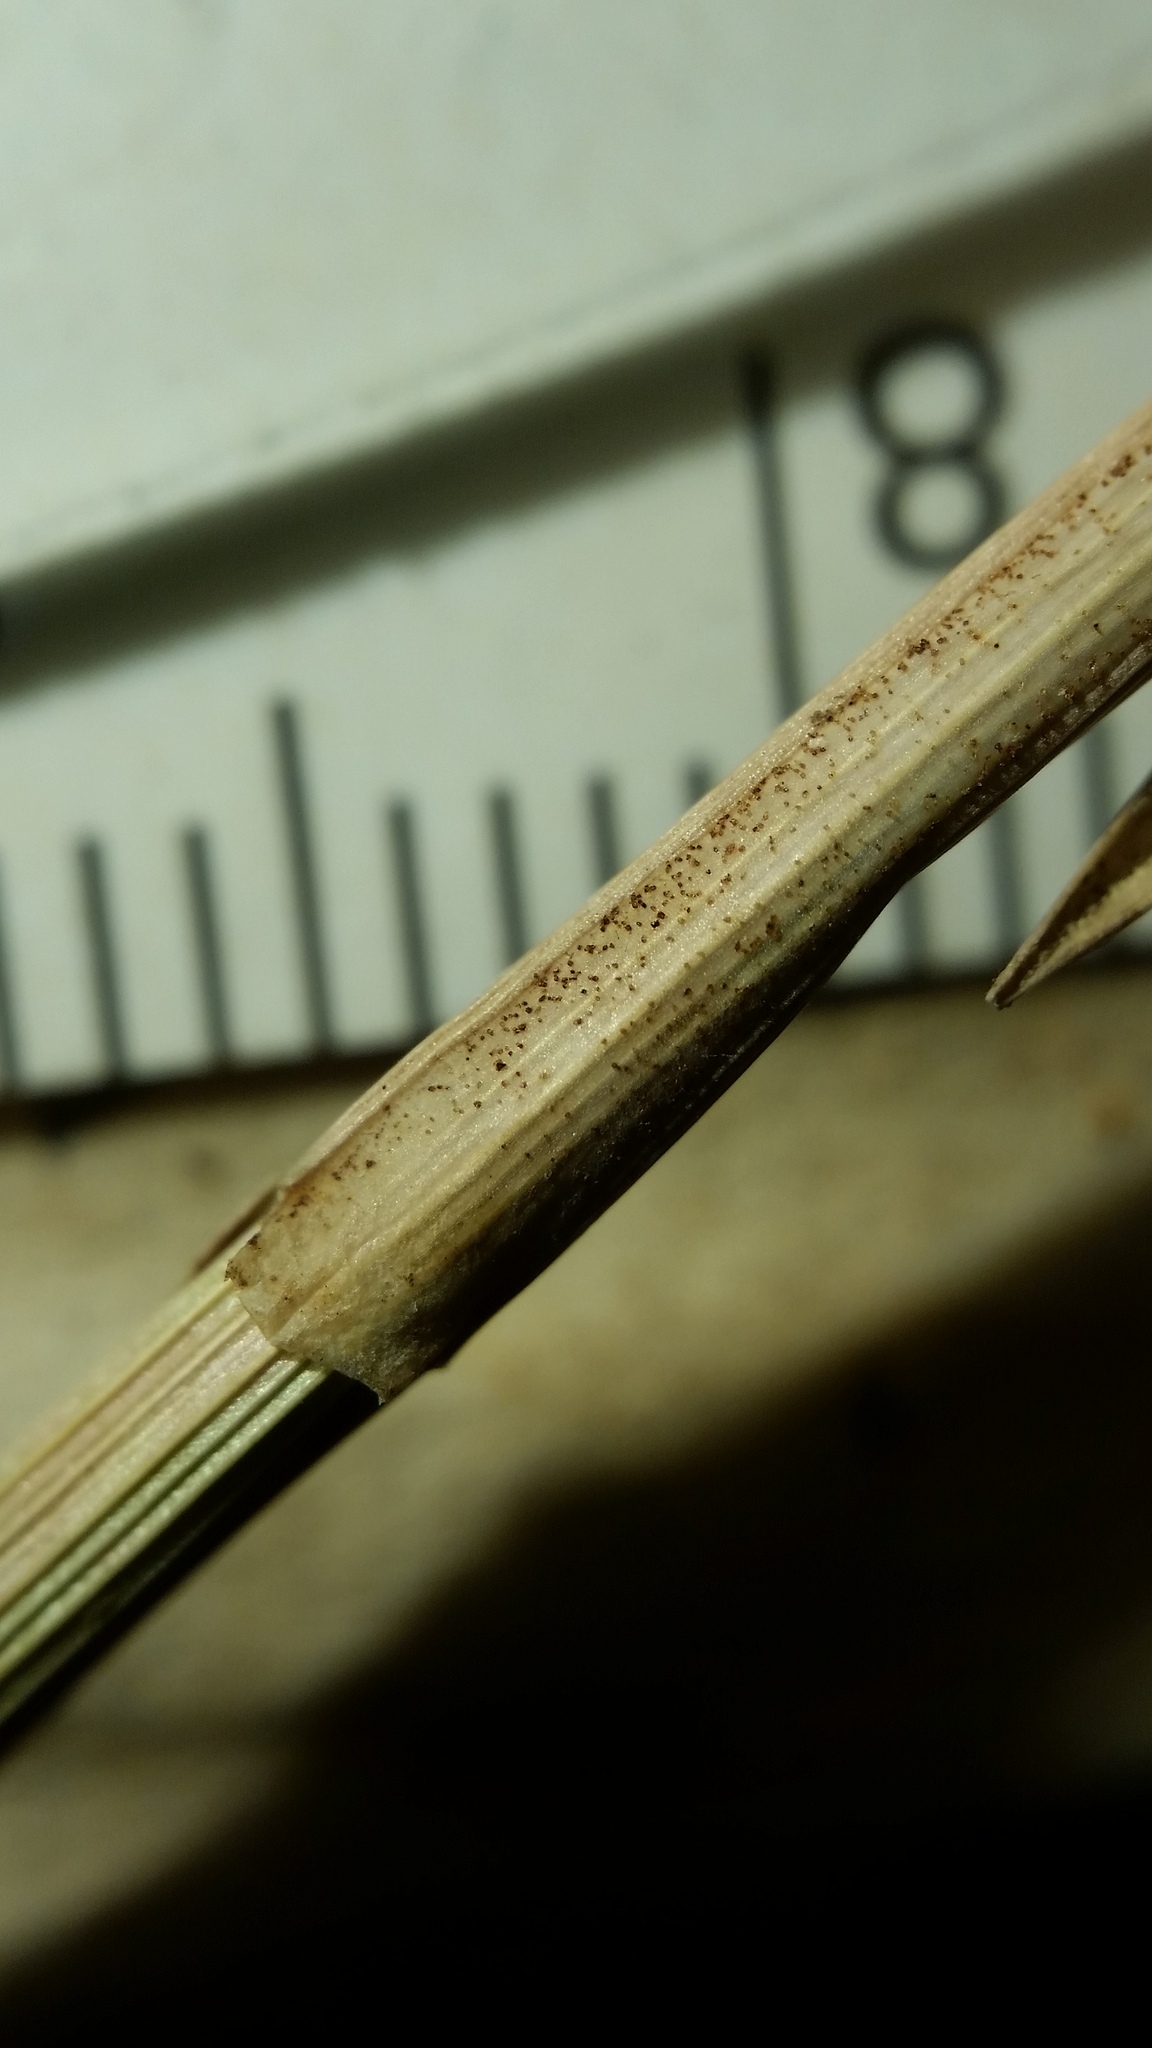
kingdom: Plantae
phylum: Tracheophyta
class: Liliopsida
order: Poales
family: Cyperaceae
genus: Carex
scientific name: Carex diandra
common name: Lesser tussock-sedge
